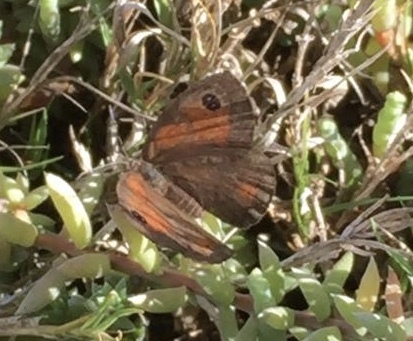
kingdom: Animalia
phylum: Arthropoda
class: Insecta
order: Lepidoptera
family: Nymphalidae
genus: Pseudonympha
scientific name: Pseudonympha detecta
